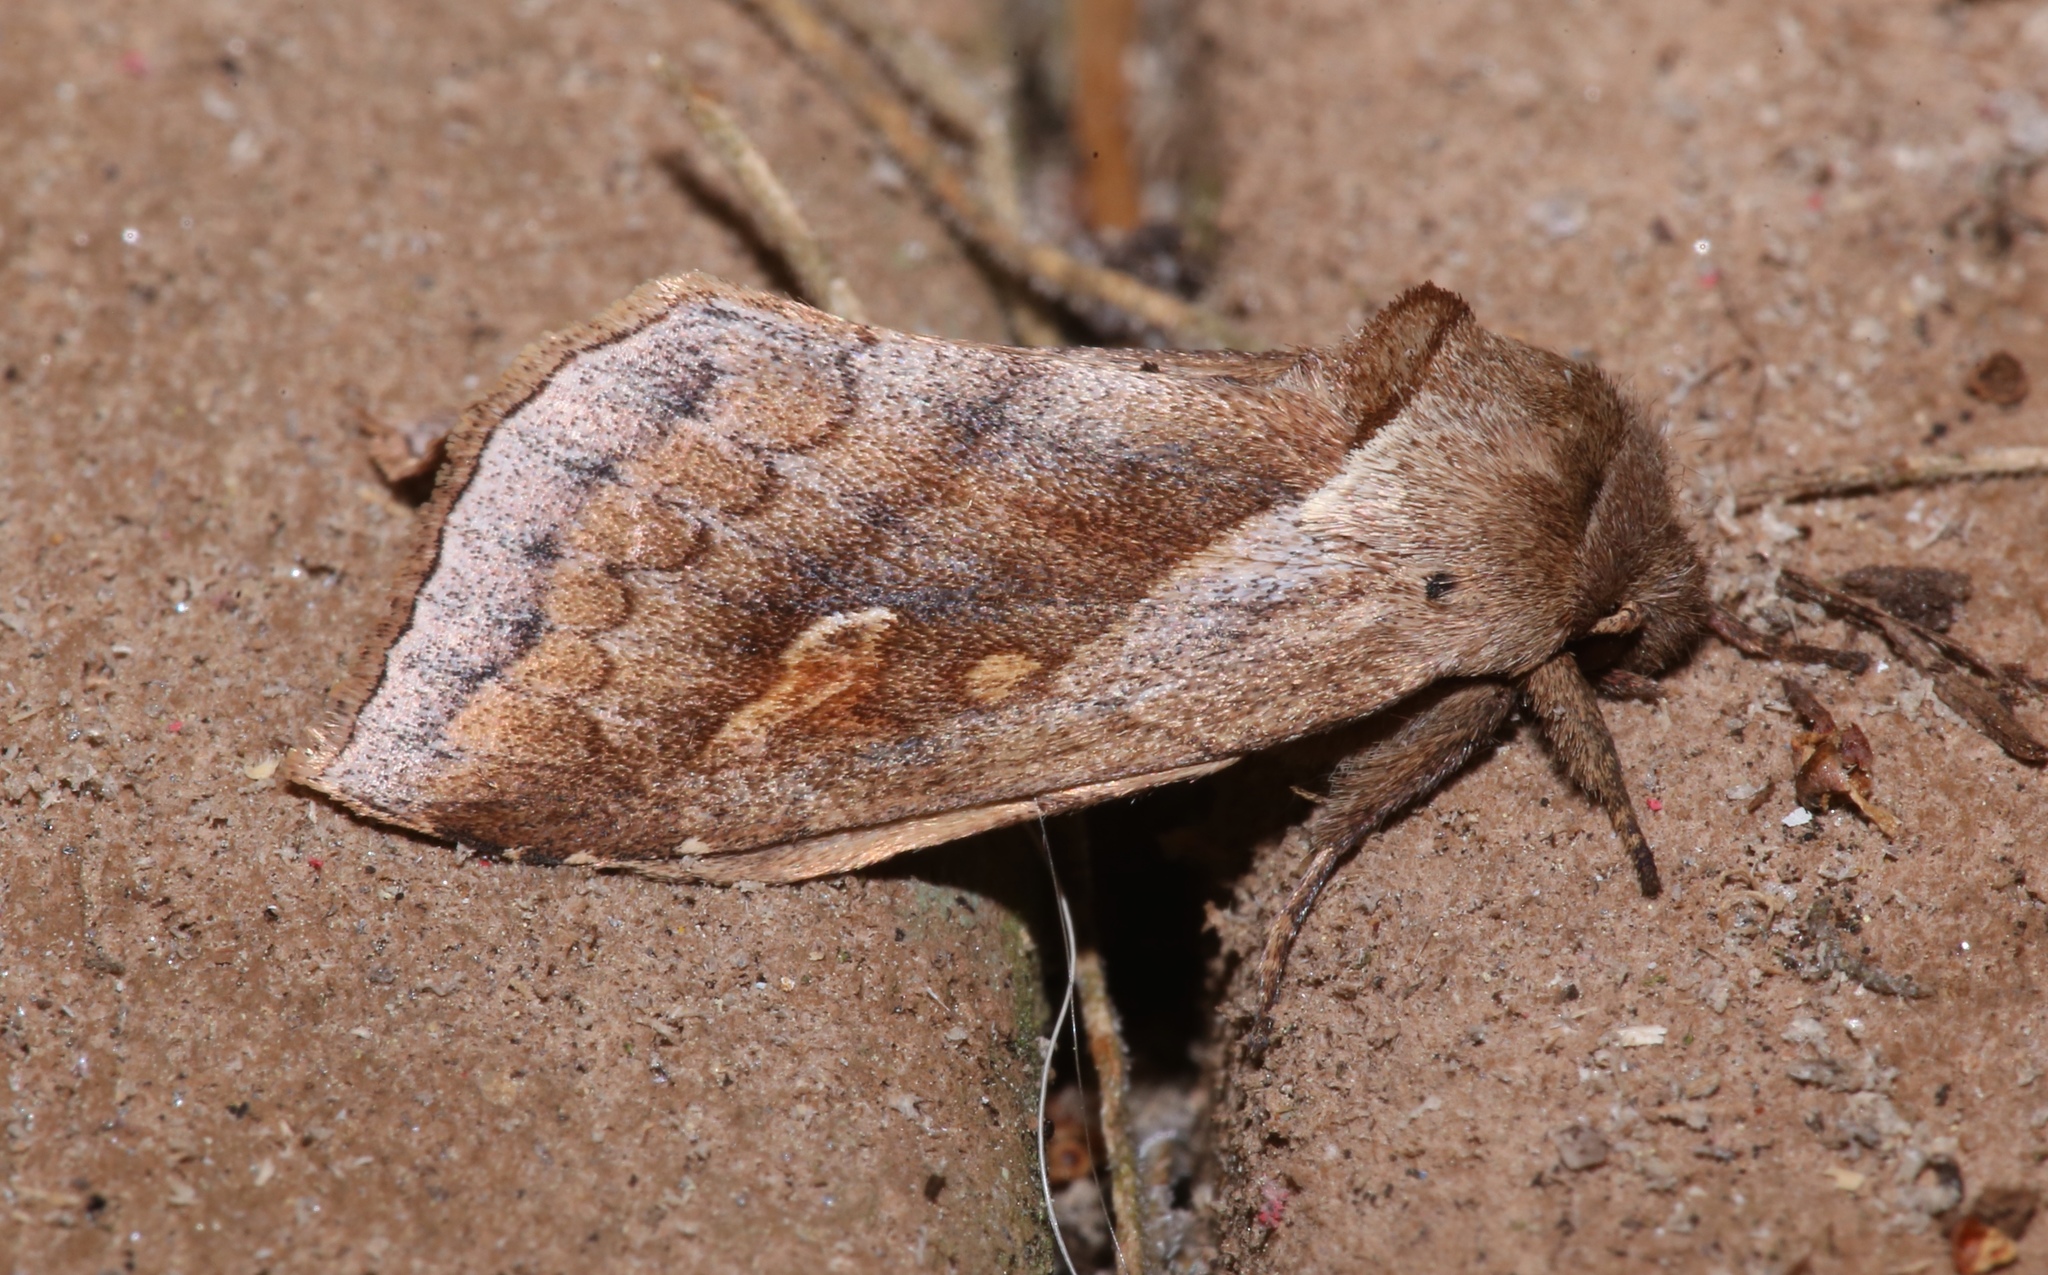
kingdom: Animalia
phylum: Arthropoda
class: Insecta
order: Lepidoptera
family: Noctuidae
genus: Bellura
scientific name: Bellura anoa
